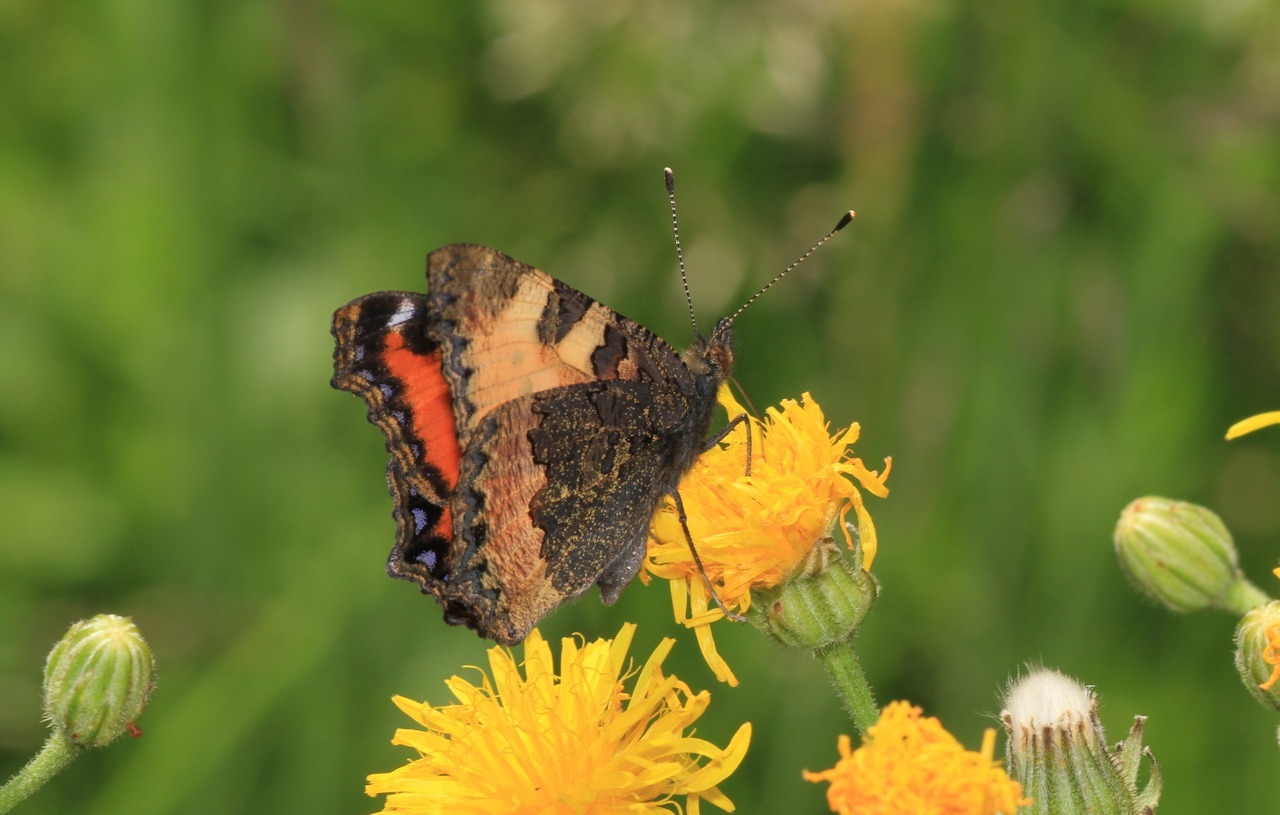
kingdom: Animalia
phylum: Arthropoda
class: Insecta
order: Lepidoptera
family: Nymphalidae
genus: Aglais
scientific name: Aglais urticae
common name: Small tortoiseshell
